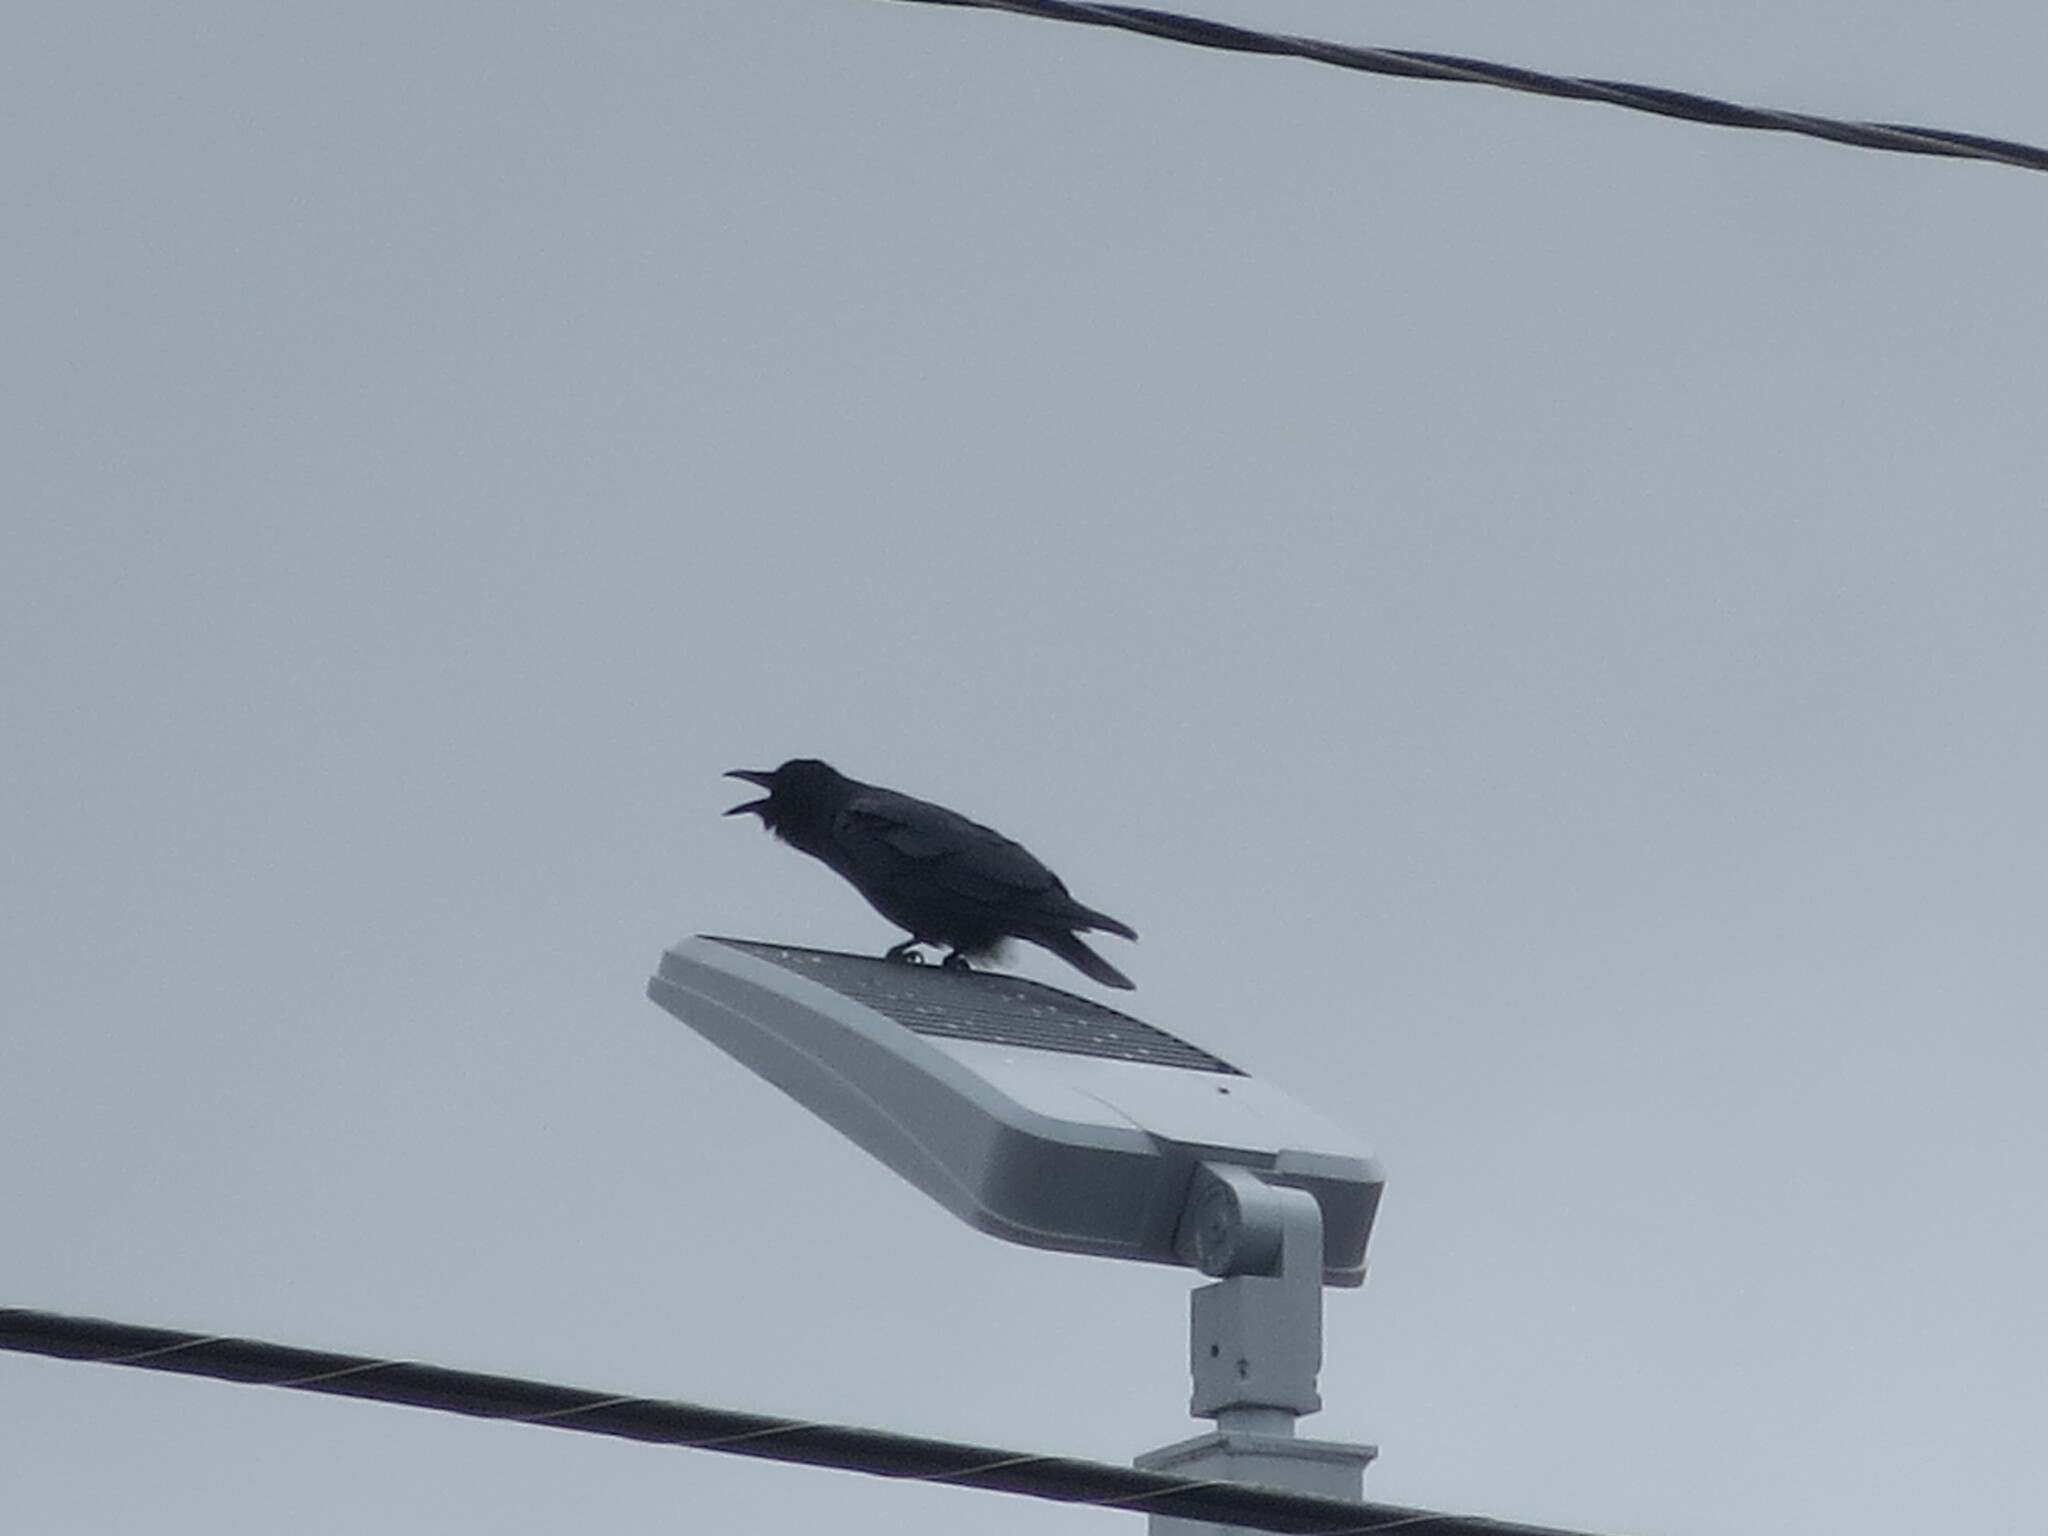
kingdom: Animalia
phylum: Chordata
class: Aves
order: Passeriformes
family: Corvidae
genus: Corvus
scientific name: Corvus ossifragus
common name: Fish crow
